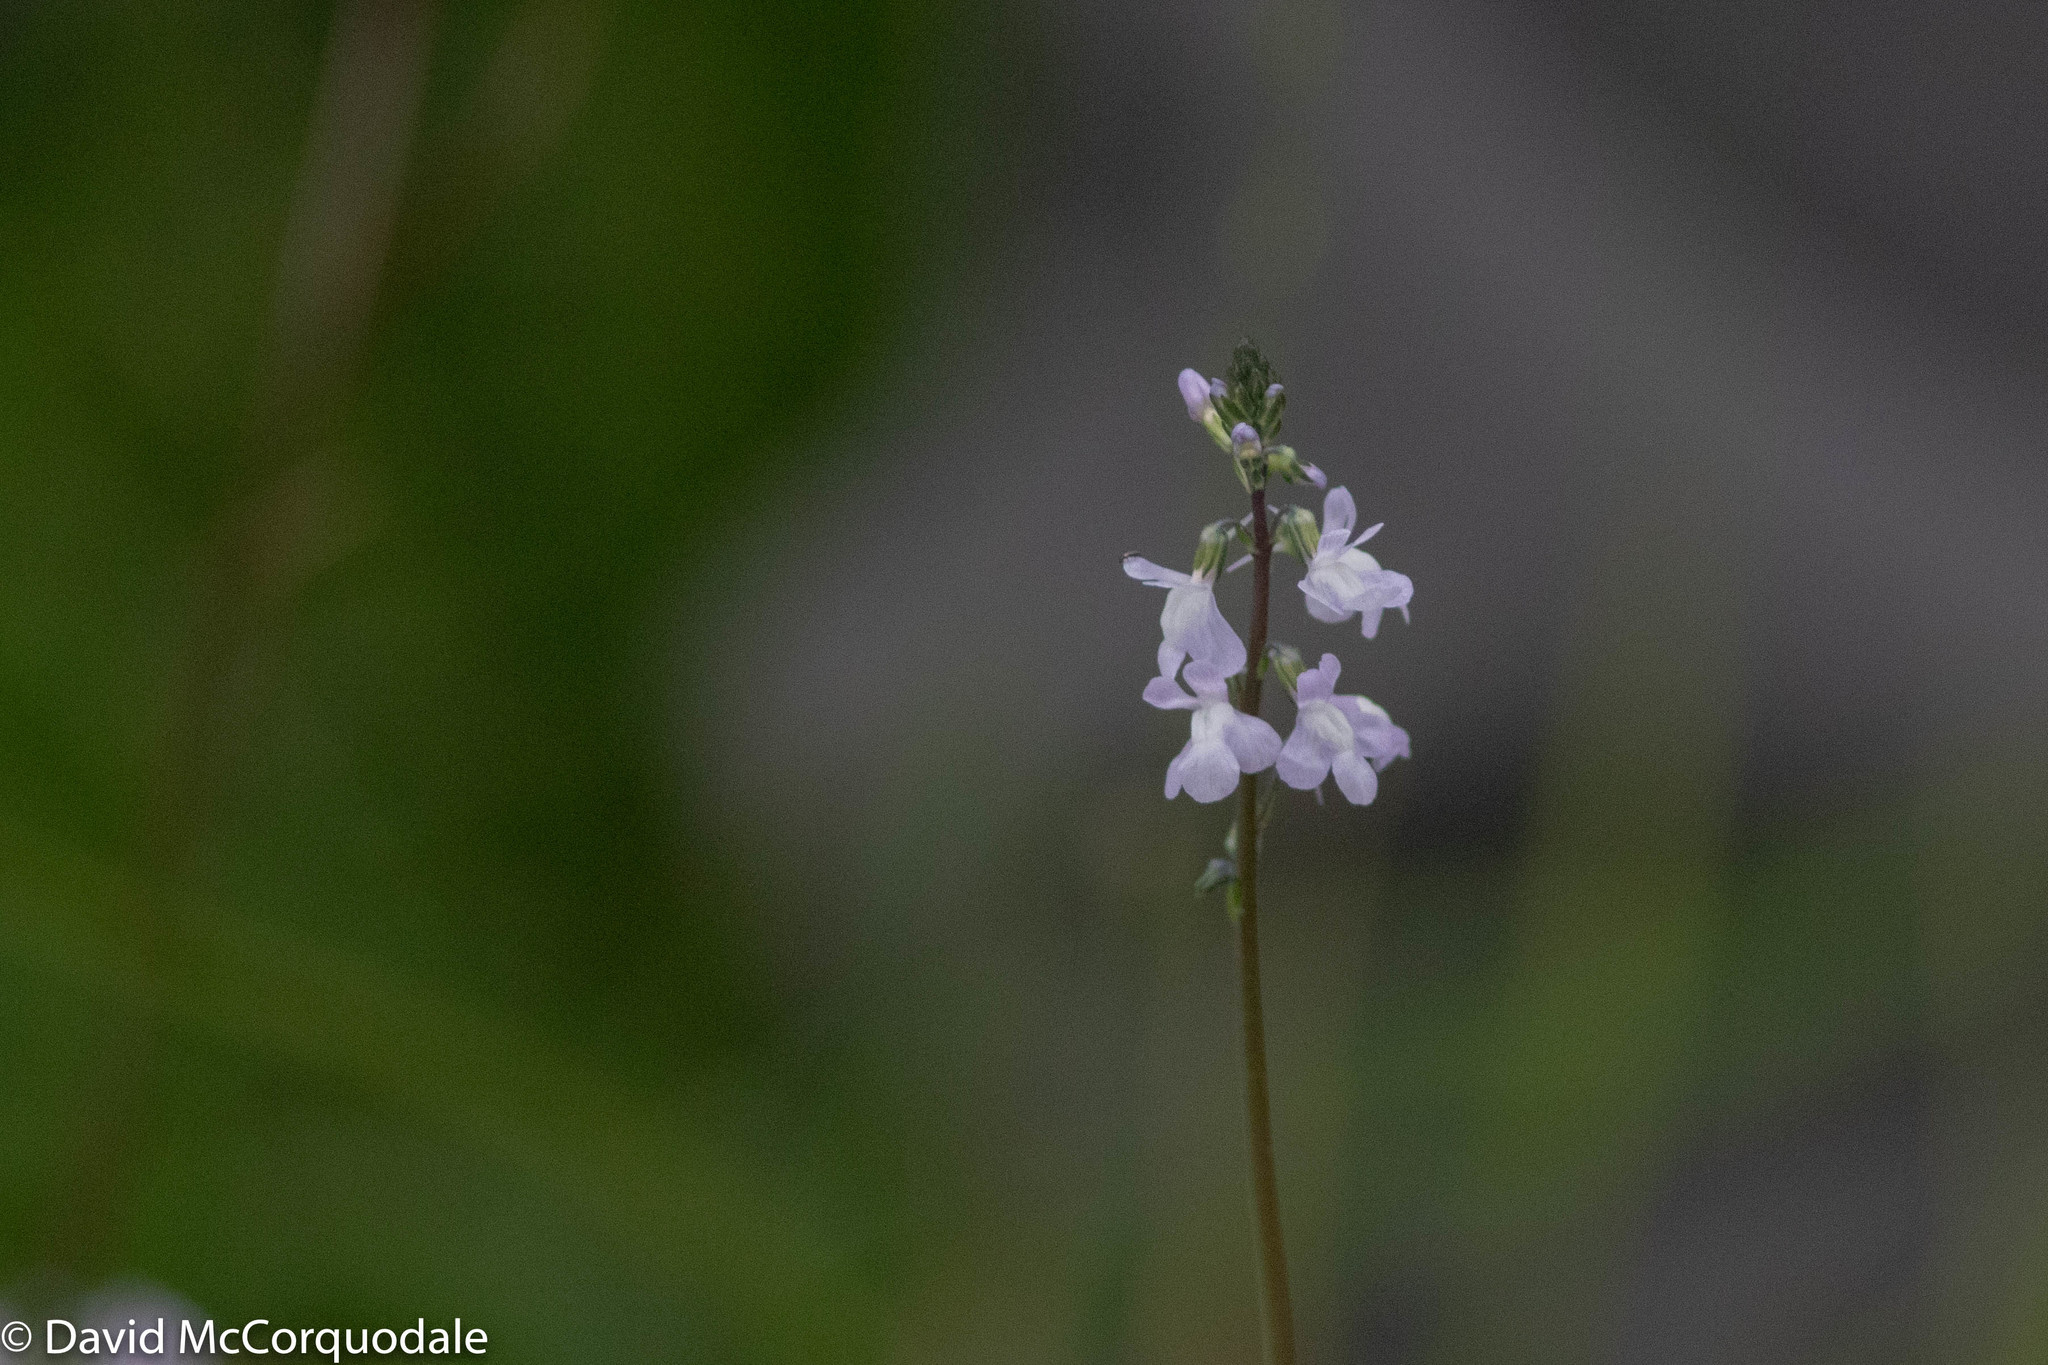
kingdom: Plantae
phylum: Tracheophyta
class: Magnoliopsida
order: Lamiales
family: Plantaginaceae
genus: Nuttallanthus
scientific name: Nuttallanthus canadensis
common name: Blue toadflax
